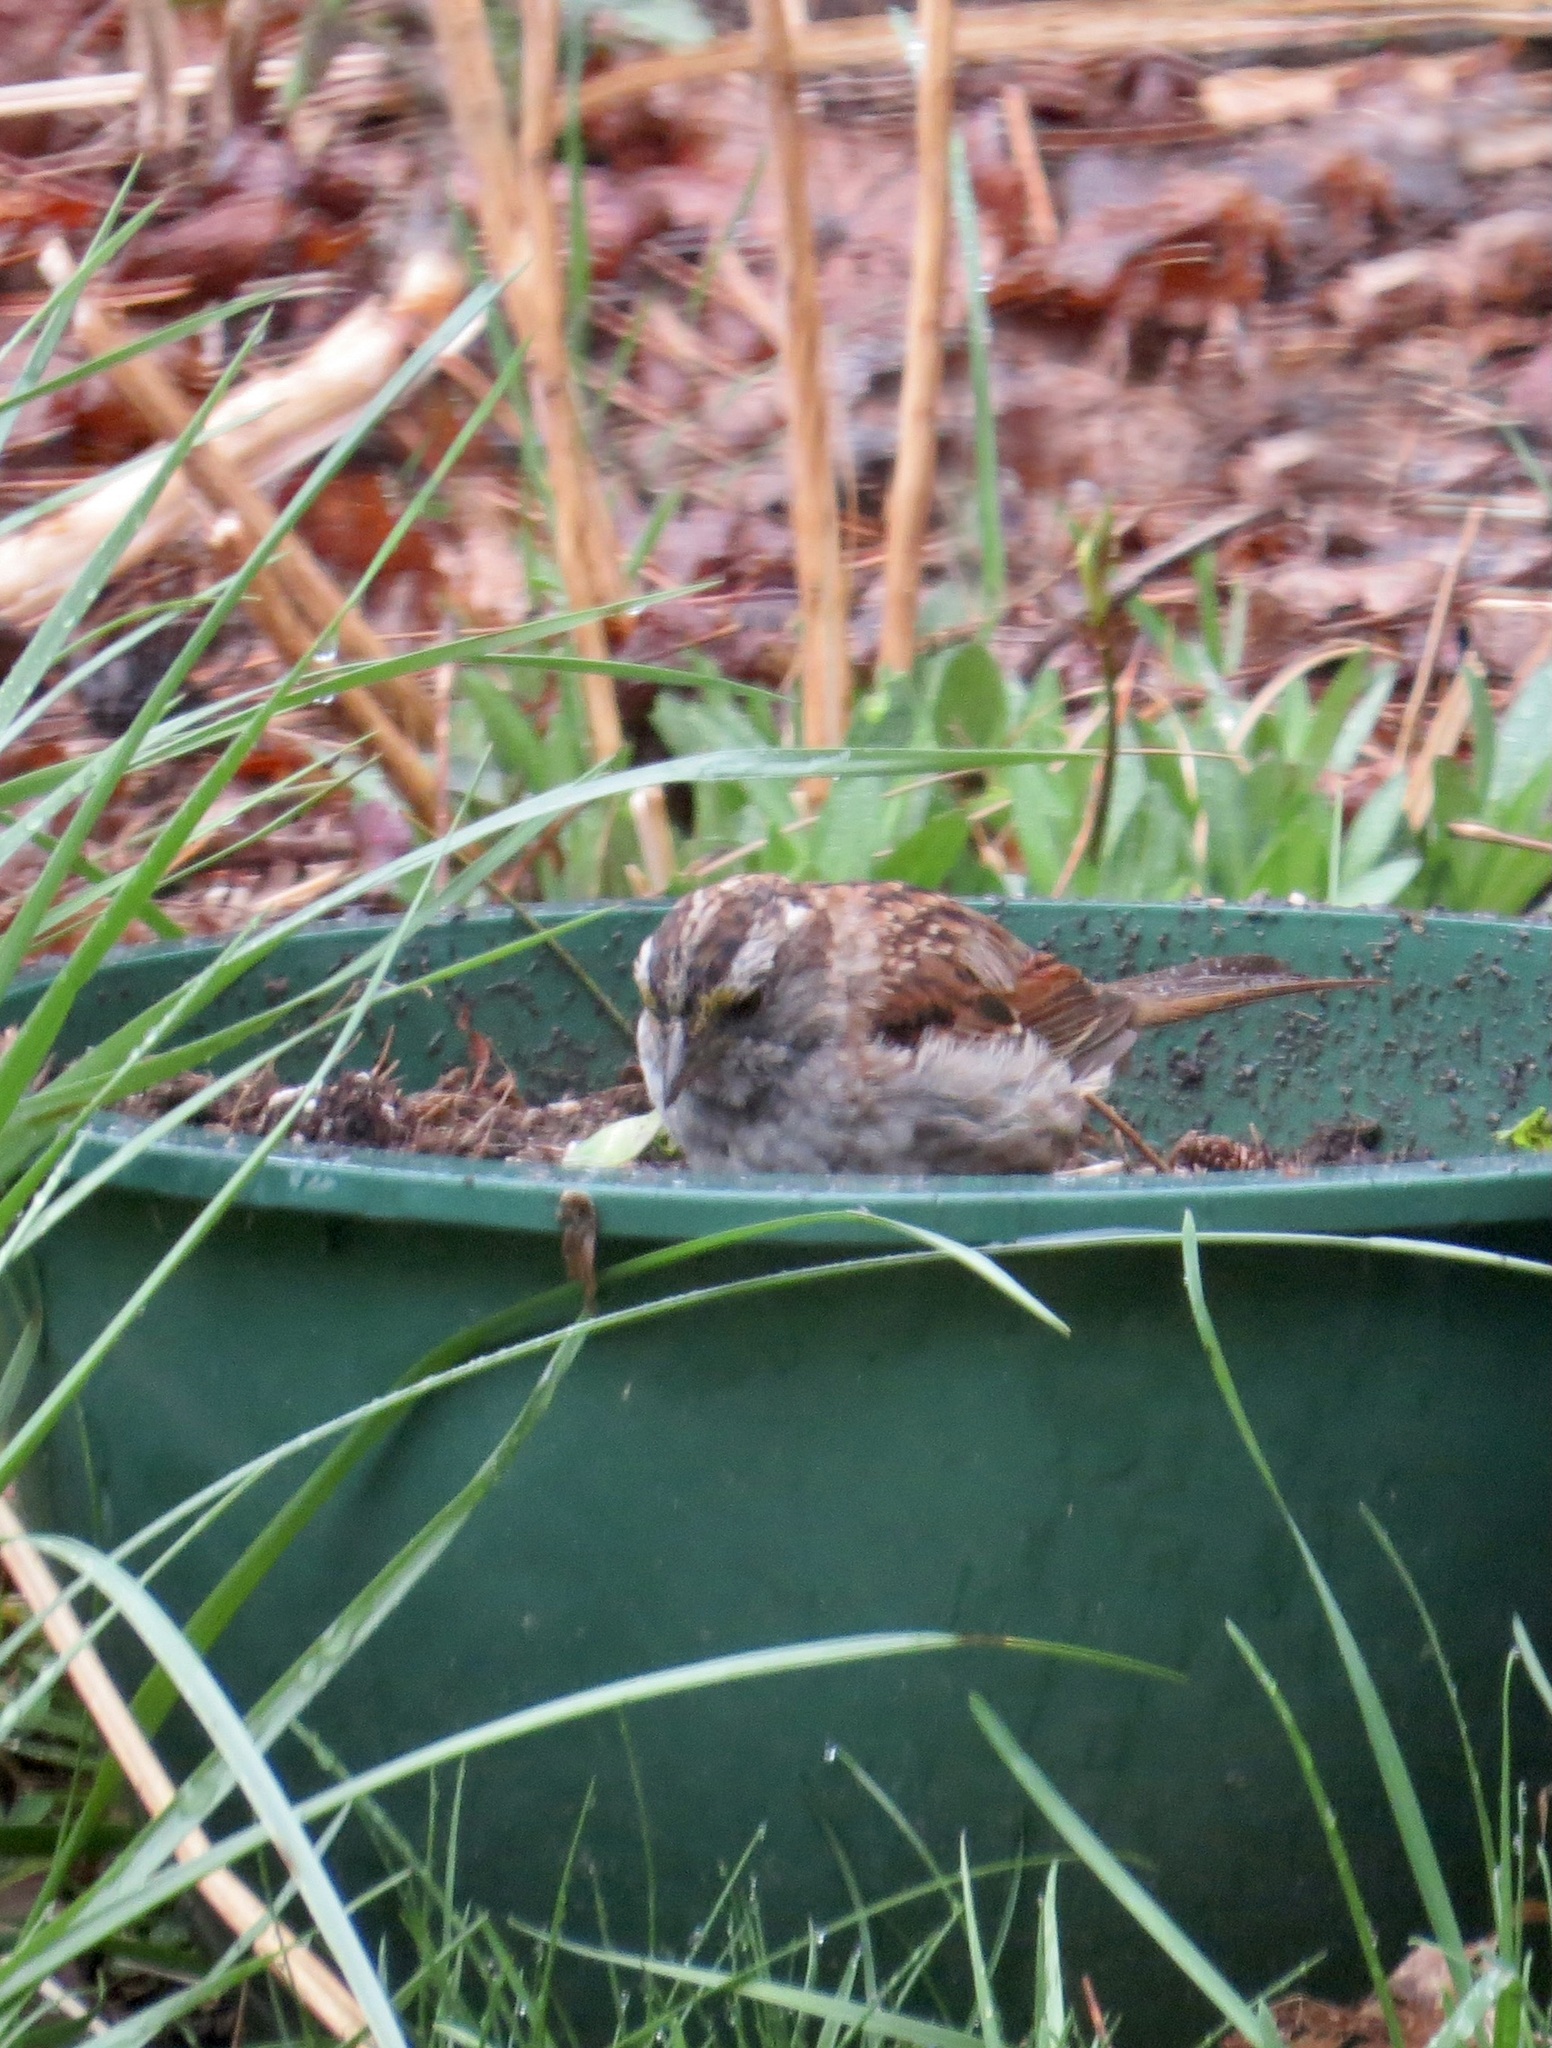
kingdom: Animalia
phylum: Chordata
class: Aves
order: Passeriformes
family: Passerellidae
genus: Zonotrichia
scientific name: Zonotrichia albicollis
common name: White-throated sparrow
